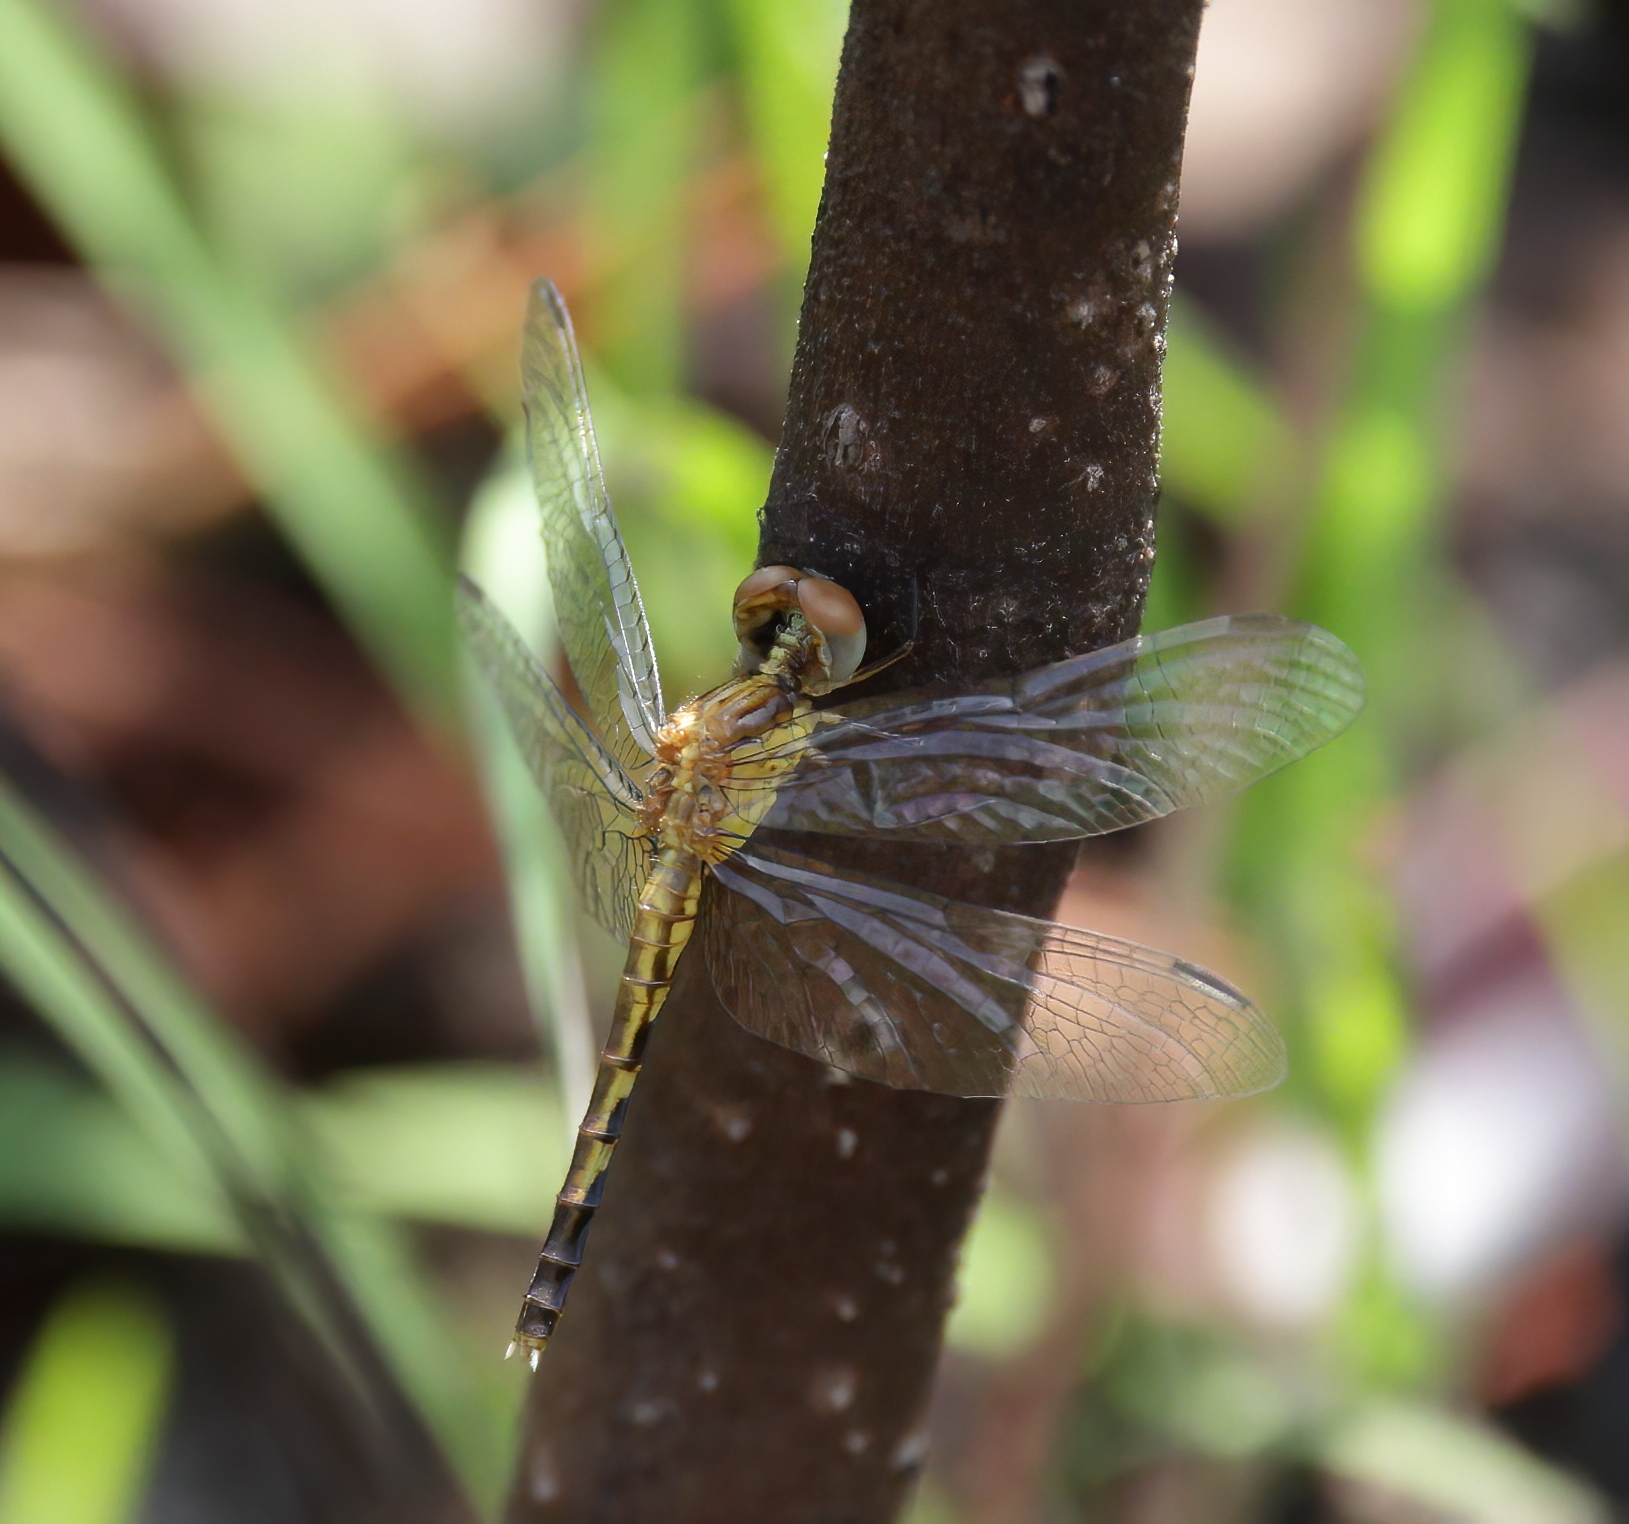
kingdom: Animalia
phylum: Arthropoda
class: Insecta
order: Odonata
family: Libellulidae
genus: Erythrodiplax
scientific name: Erythrodiplax minuscula
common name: Little blue dragonlet
